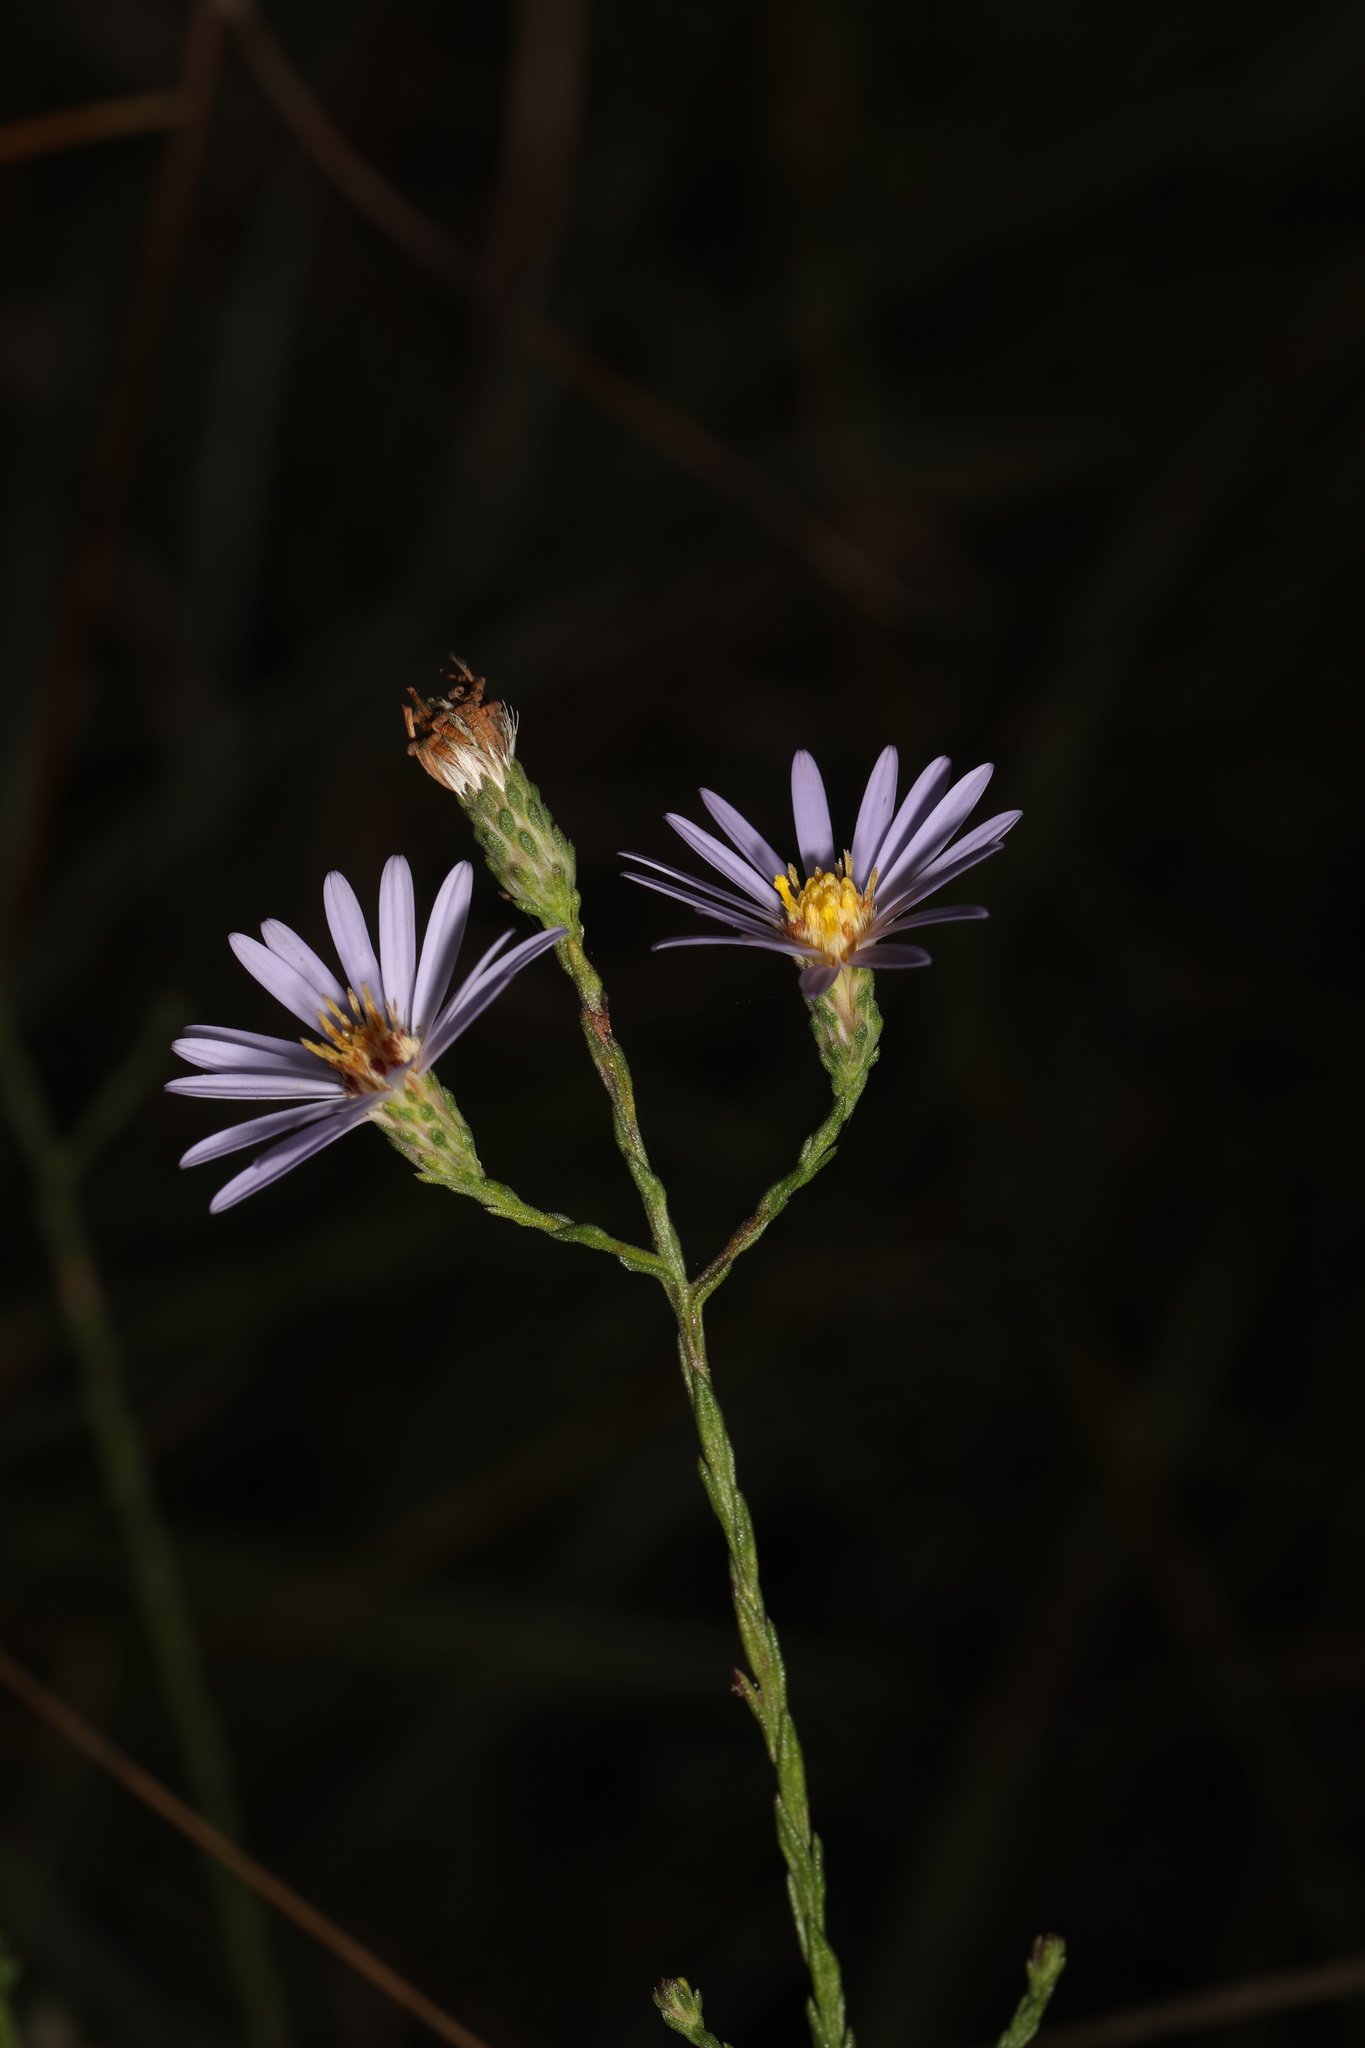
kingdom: Plantae
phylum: Tracheophyta
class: Magnoliopsida
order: Asterales
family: Asteraceae
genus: Symphyotrichum
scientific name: Symphyotrichum adnatum
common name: Scale-leaf aster
